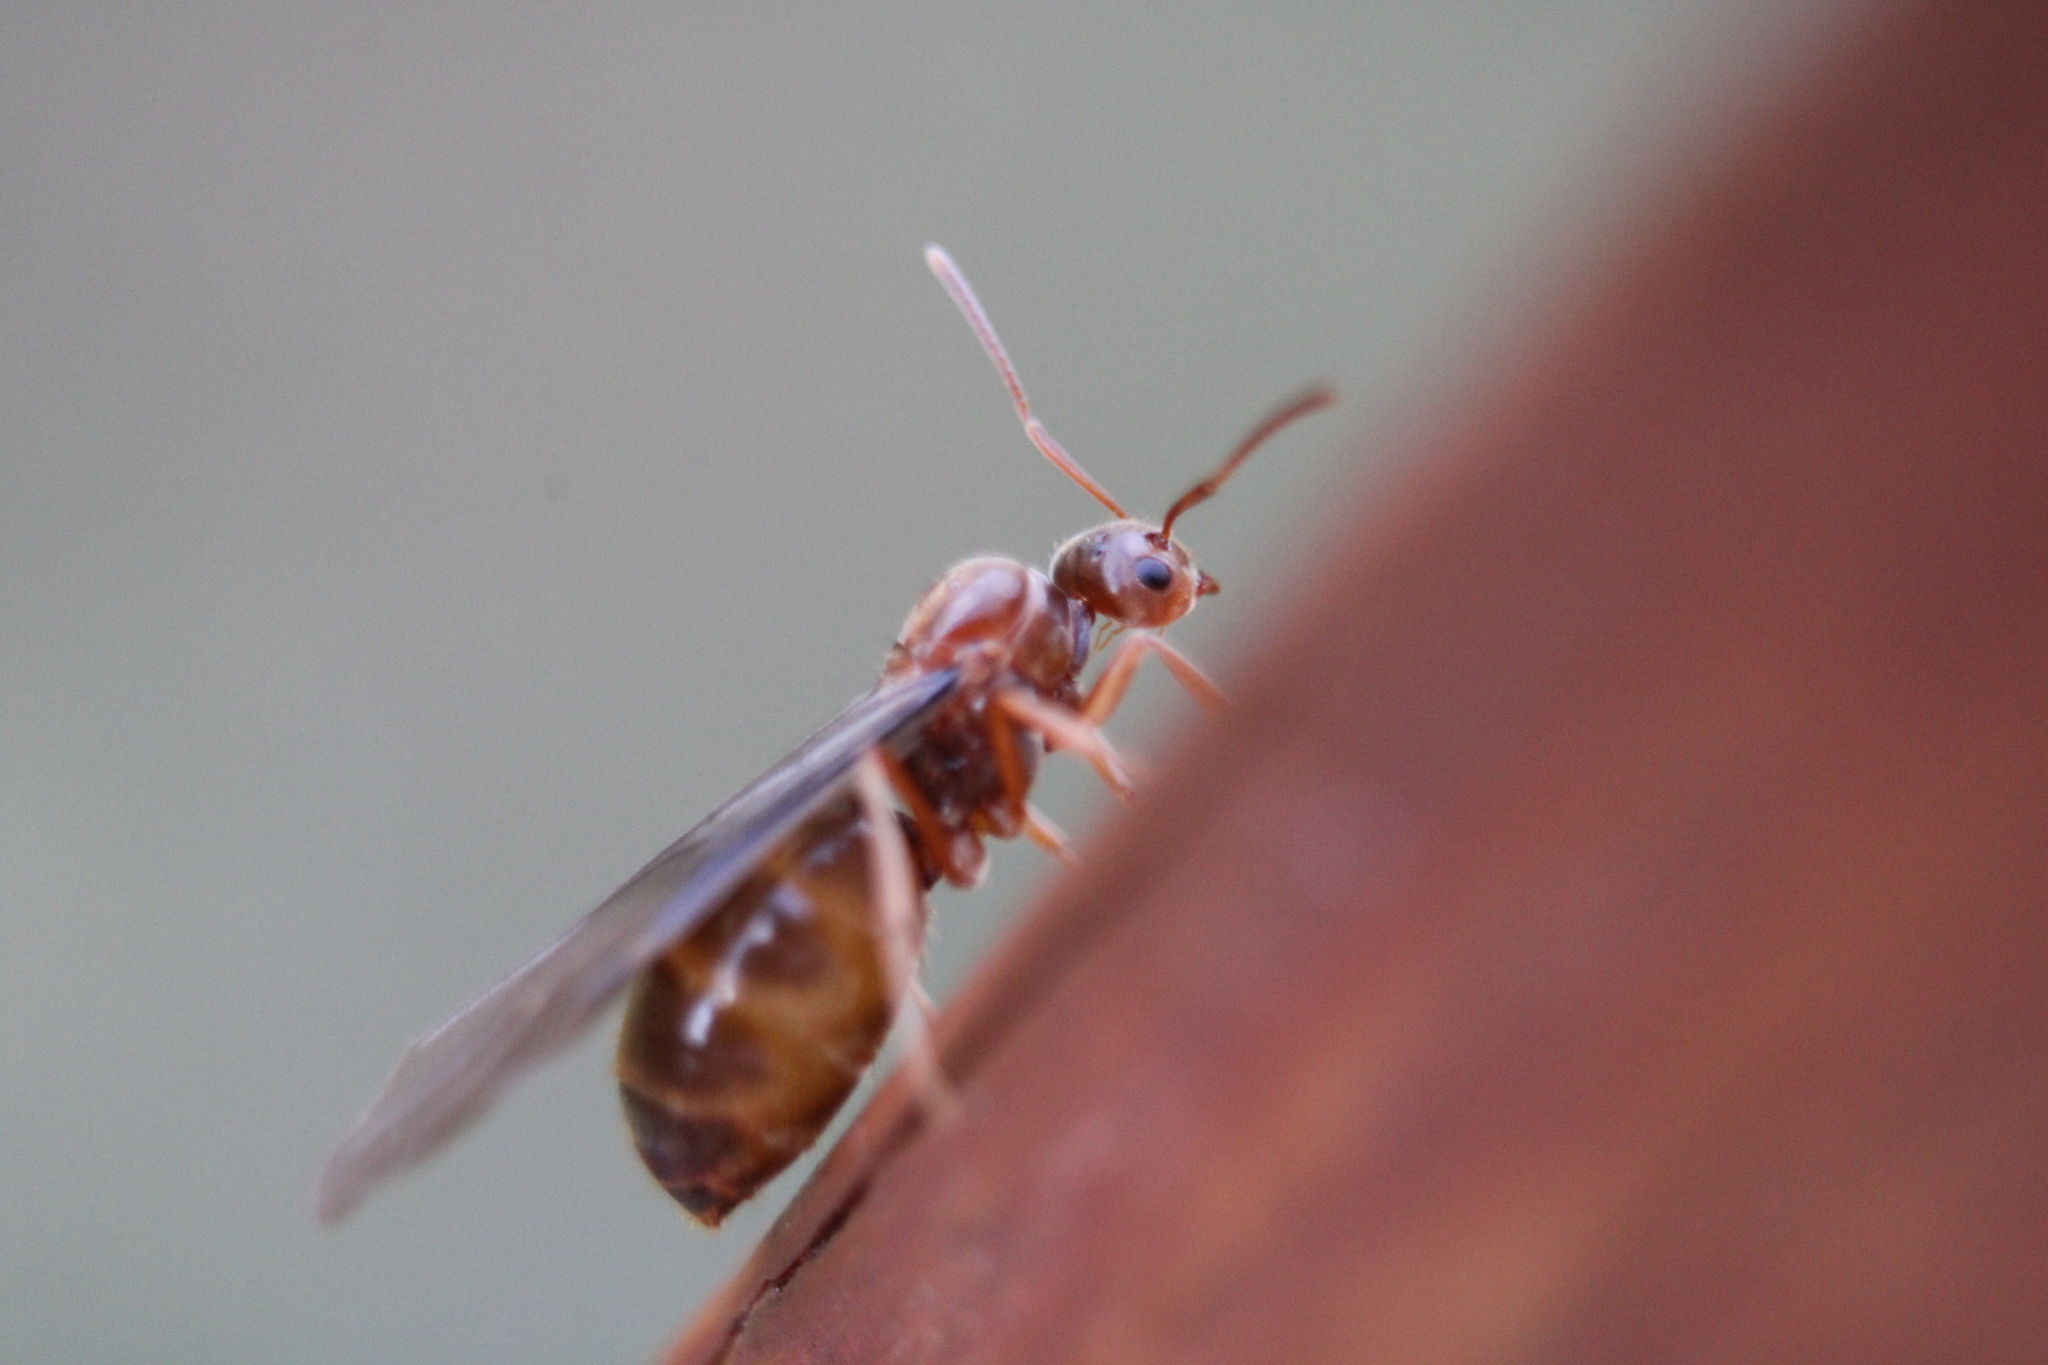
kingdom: Animalia
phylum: Arthropoda
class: Insecta
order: Hymenoptera
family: Formicidae
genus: Prenolepis
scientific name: Prenolepis imparis
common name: Small honey ant
